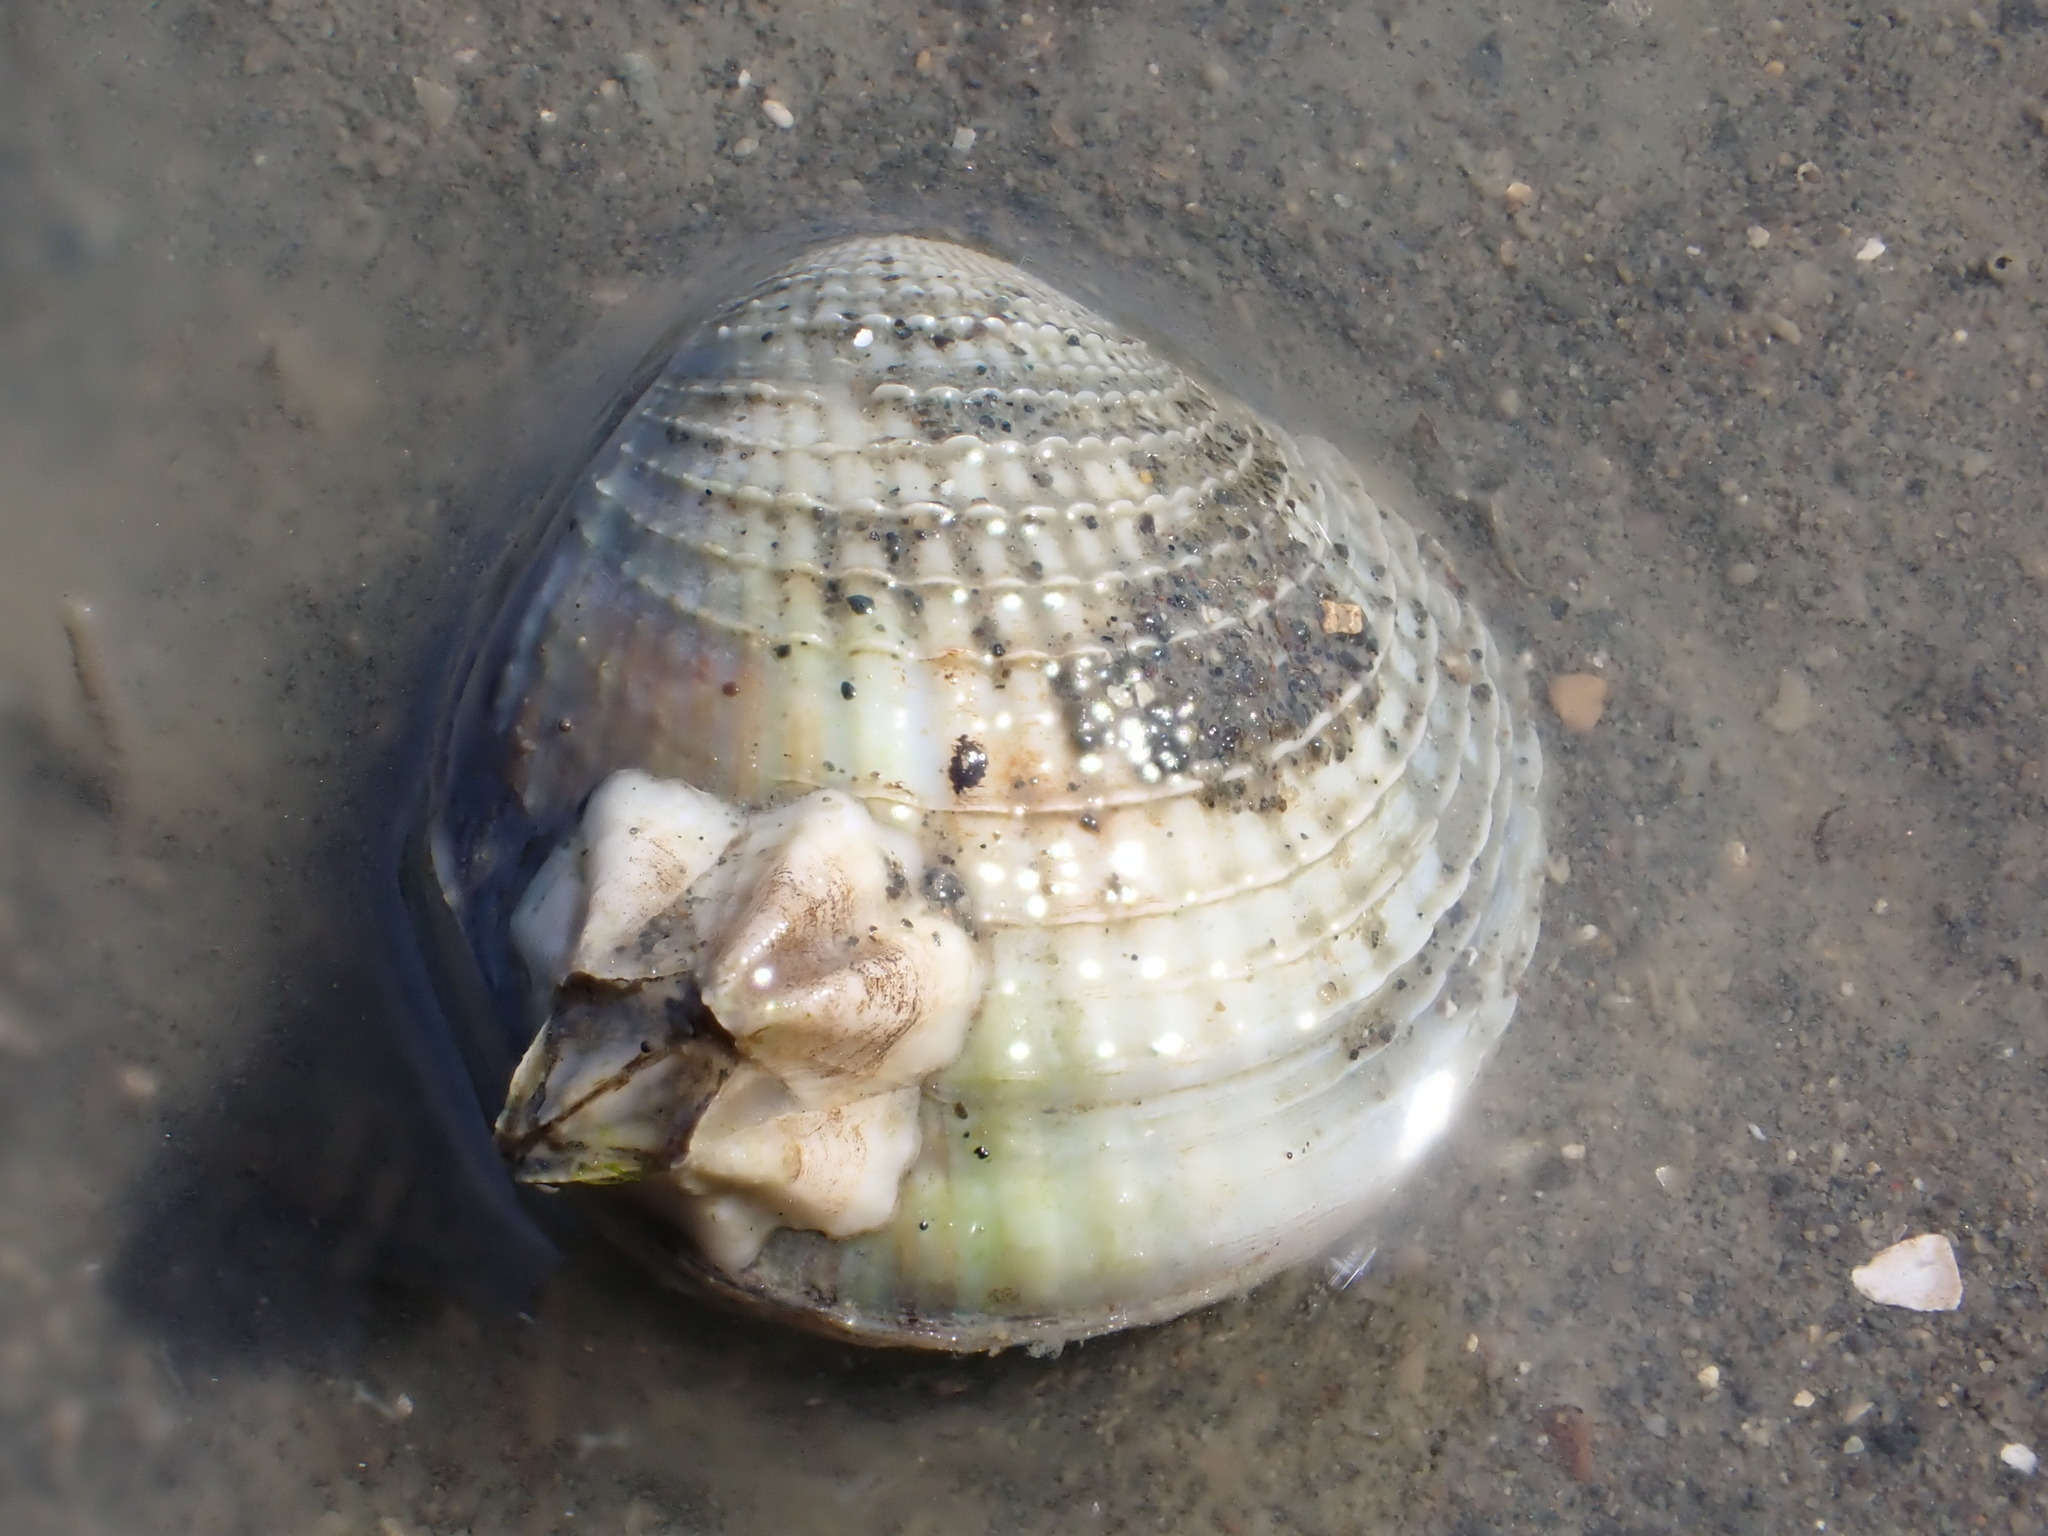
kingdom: Animalia
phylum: Arthropoda
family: Elminiidae
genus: Austrominius
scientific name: Austrominius modestus
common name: Australasian barnacle
